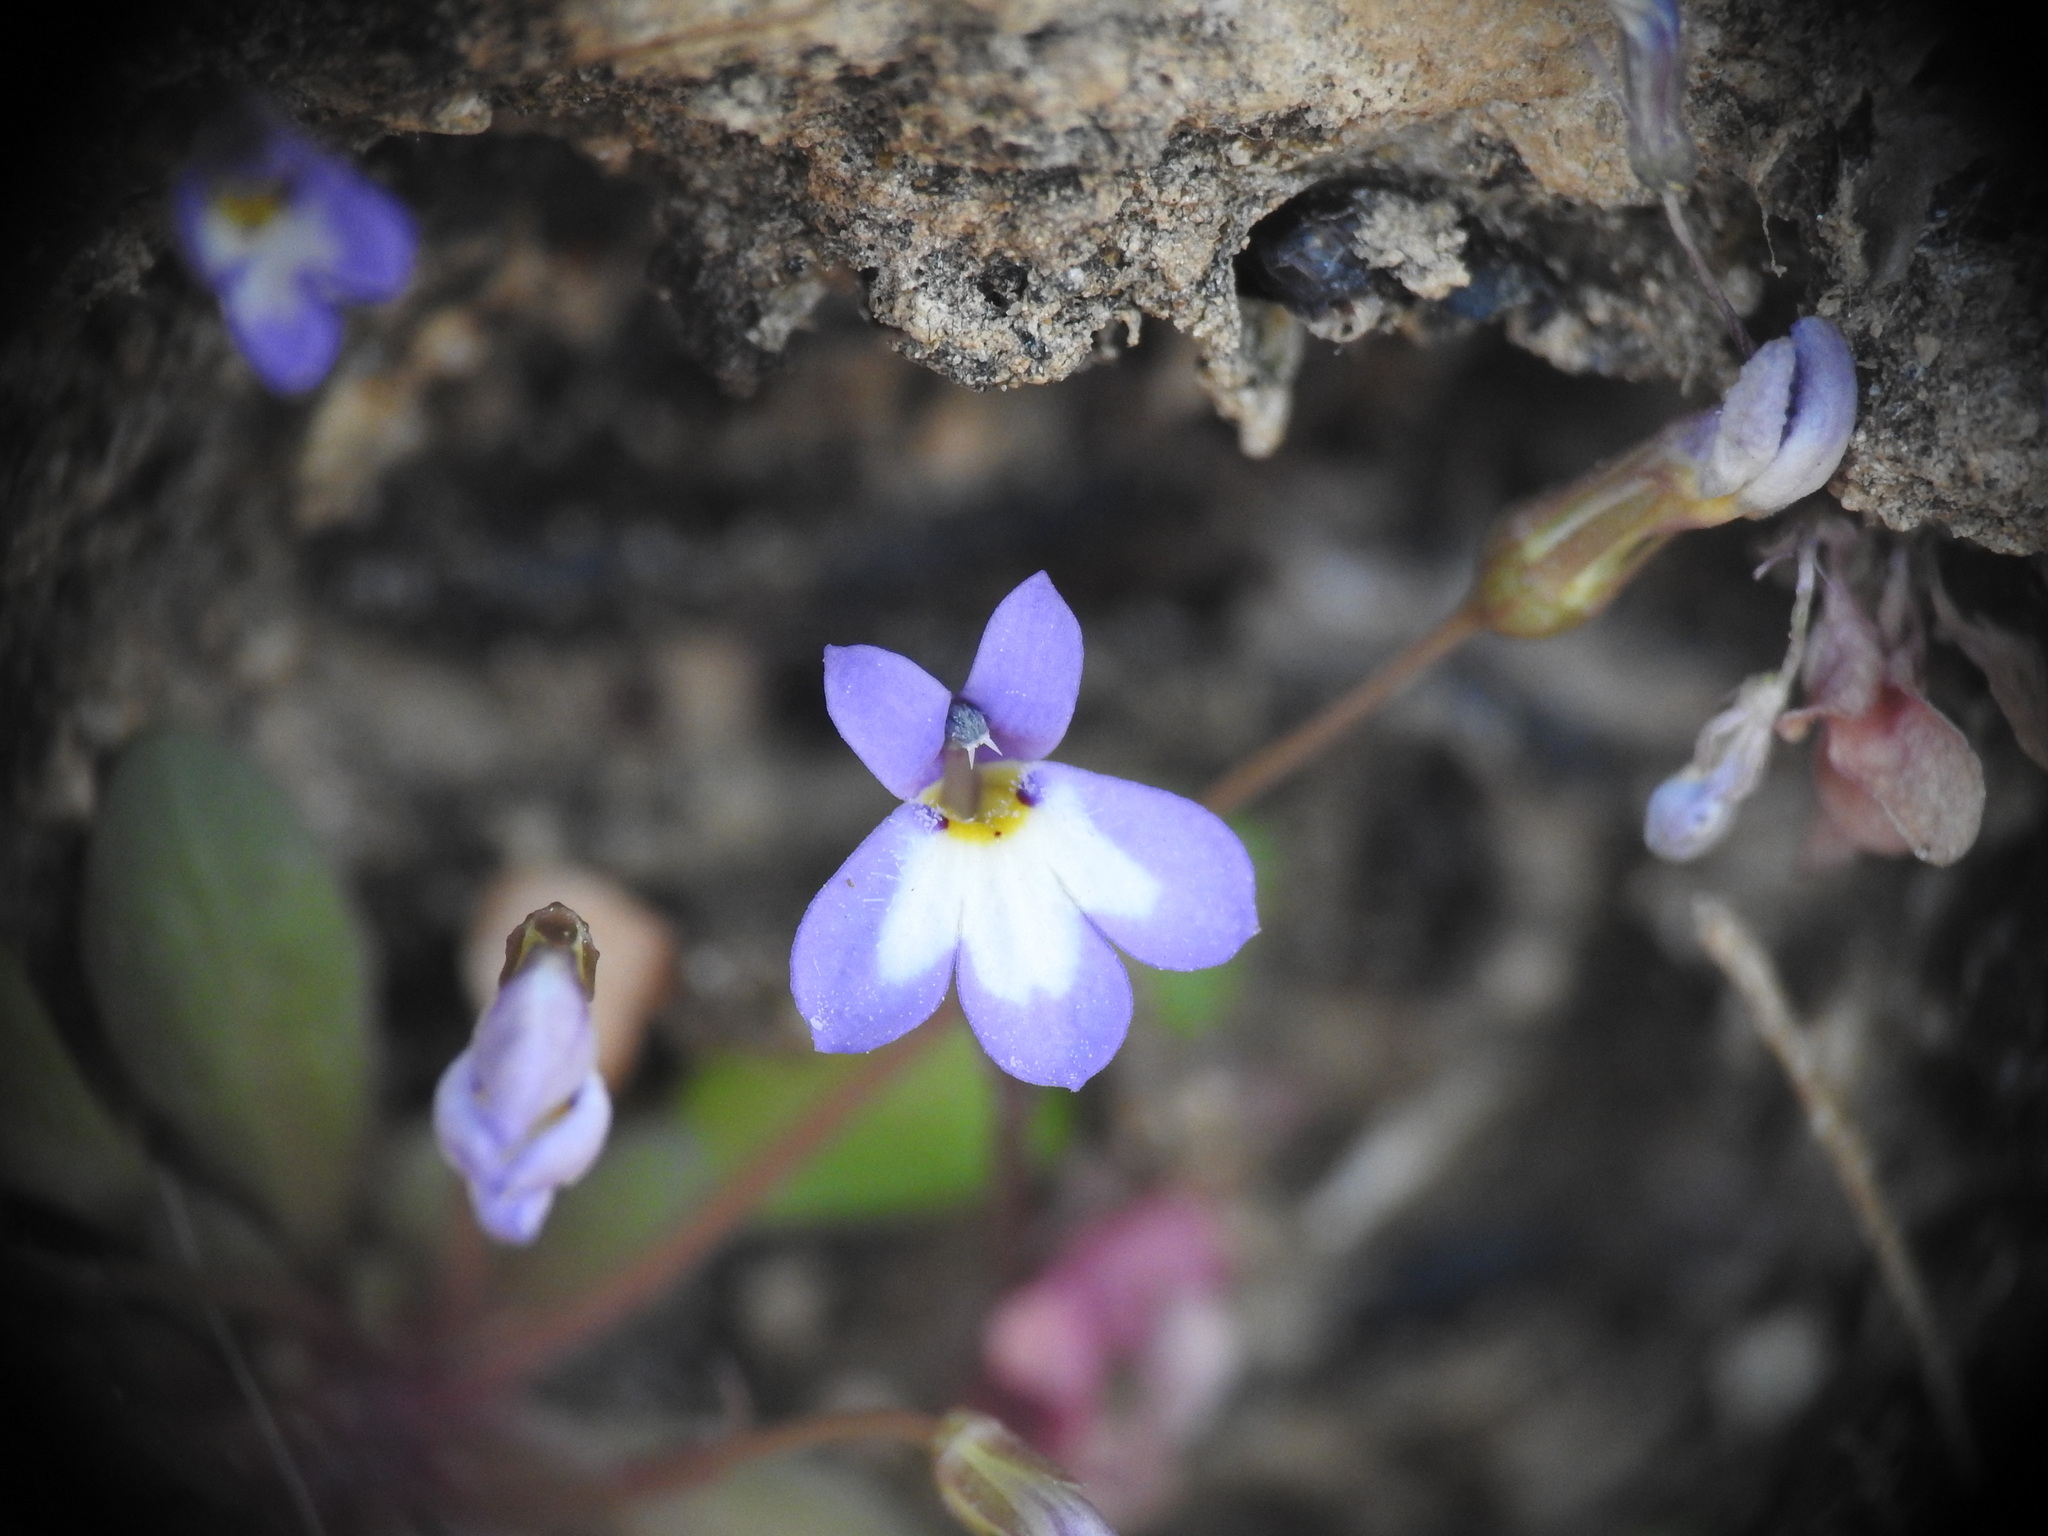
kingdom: Plantae
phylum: Tracheophyta
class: Magnoliopsida
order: Asterales
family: Campanulaceae
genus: Solenopsis
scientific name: Solenopsis minuta
